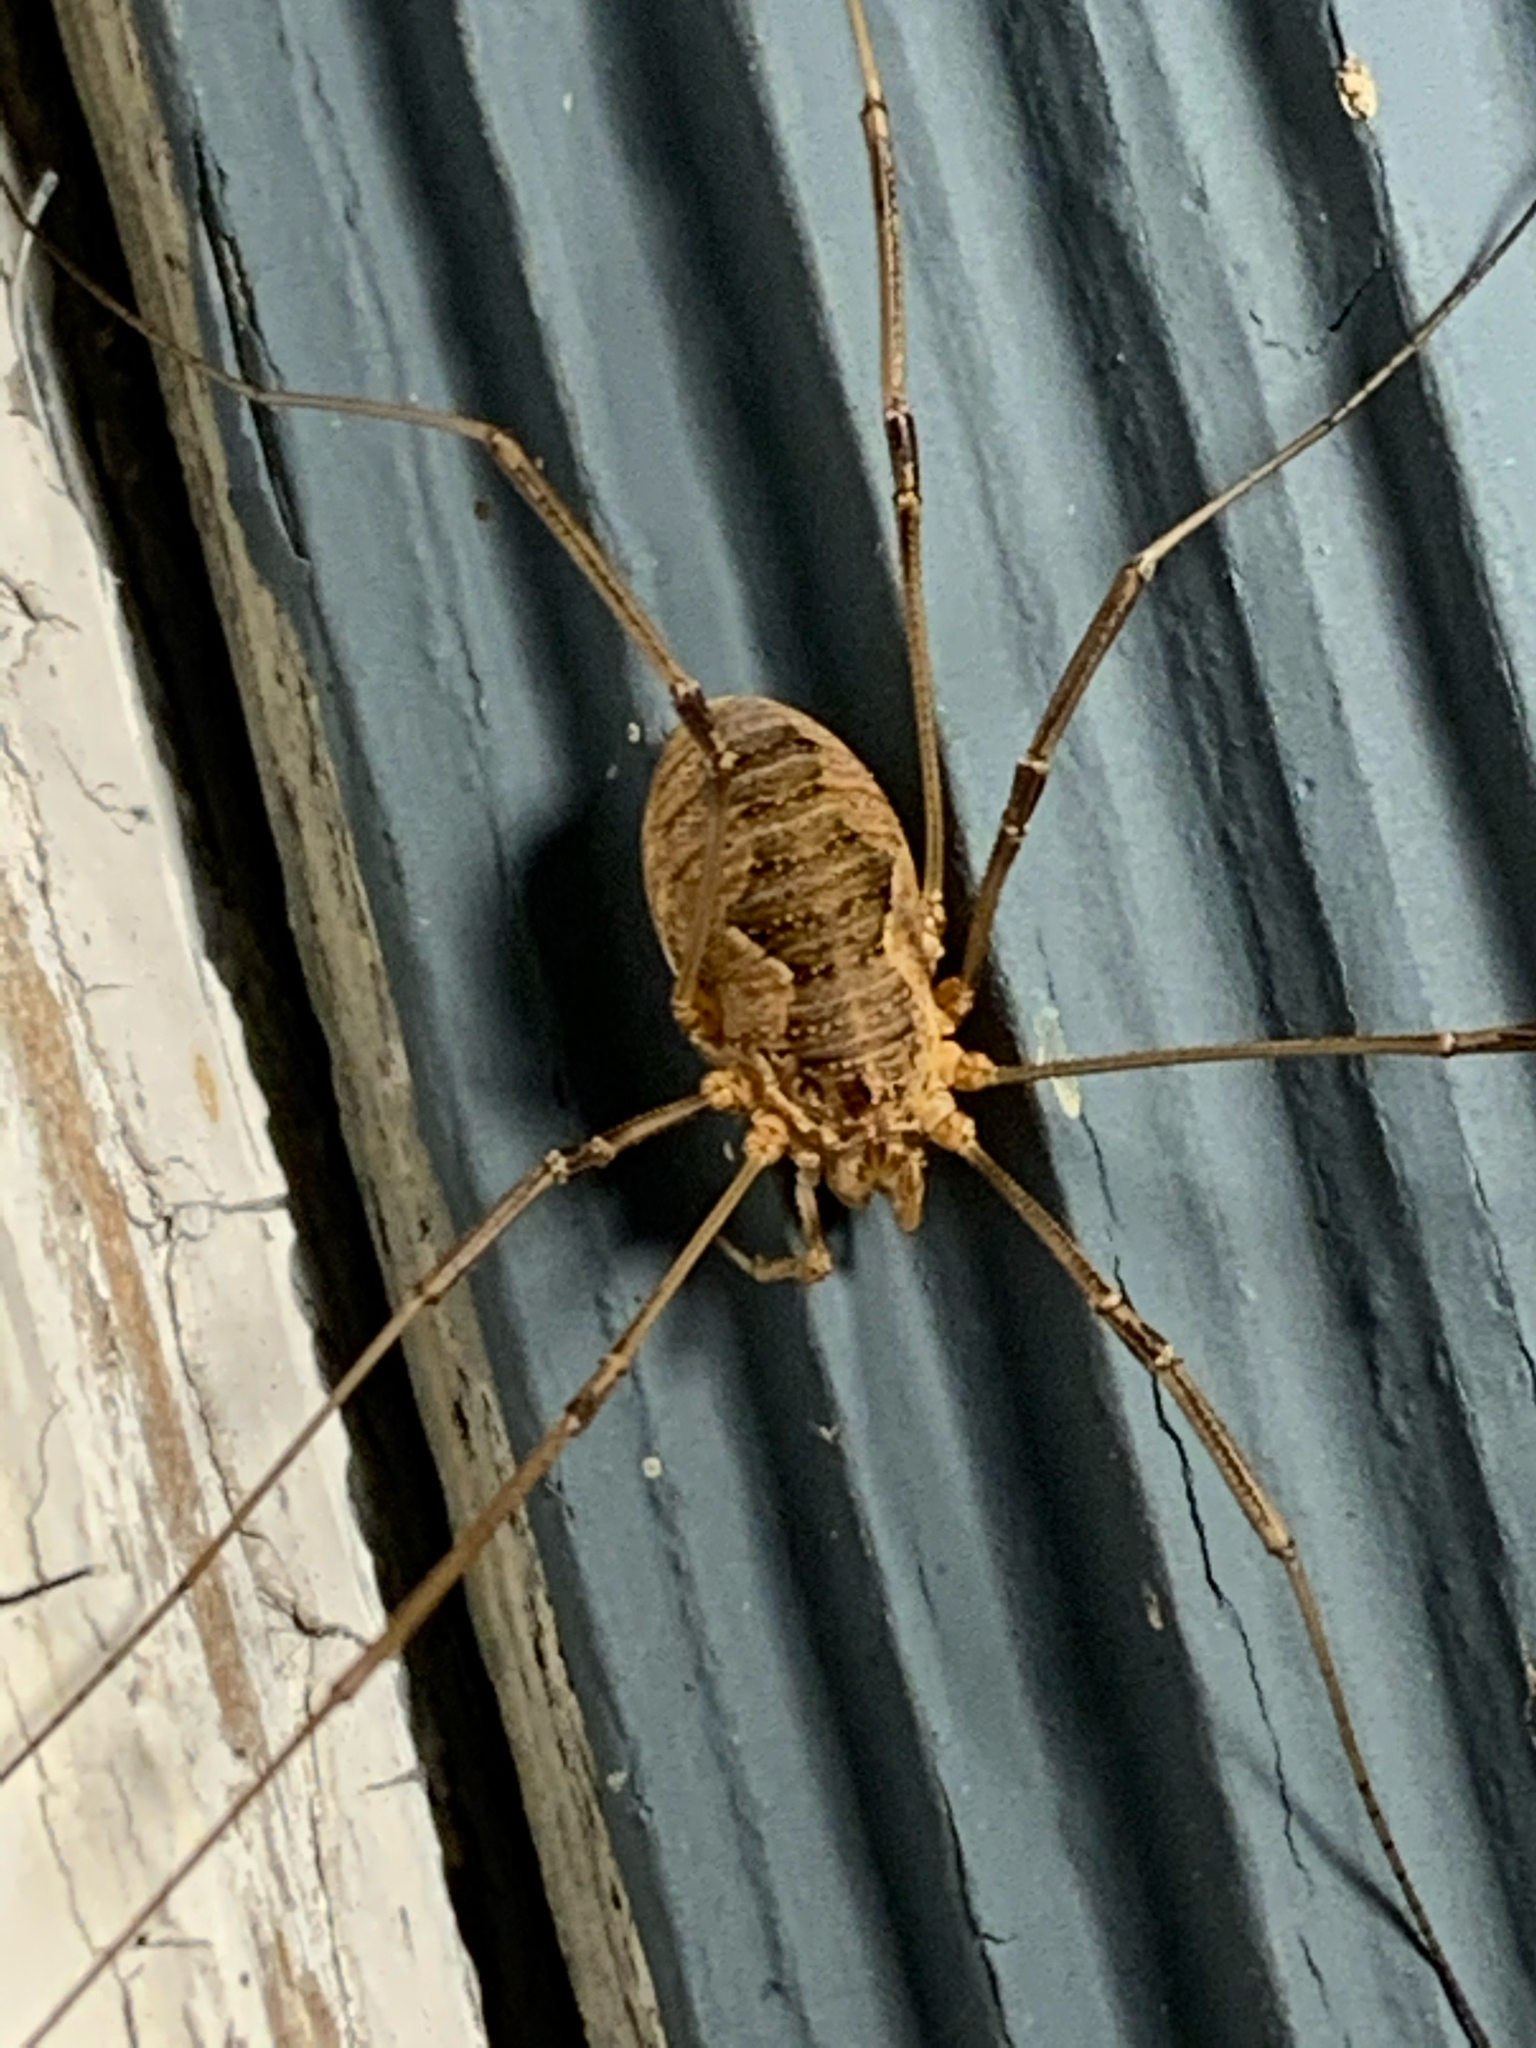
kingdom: Animalia
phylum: Arthropoda
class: Arachnida
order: Opiliones
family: Phalangiidae
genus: Phalangium
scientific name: Phalangium opilio
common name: Daddy longleg
